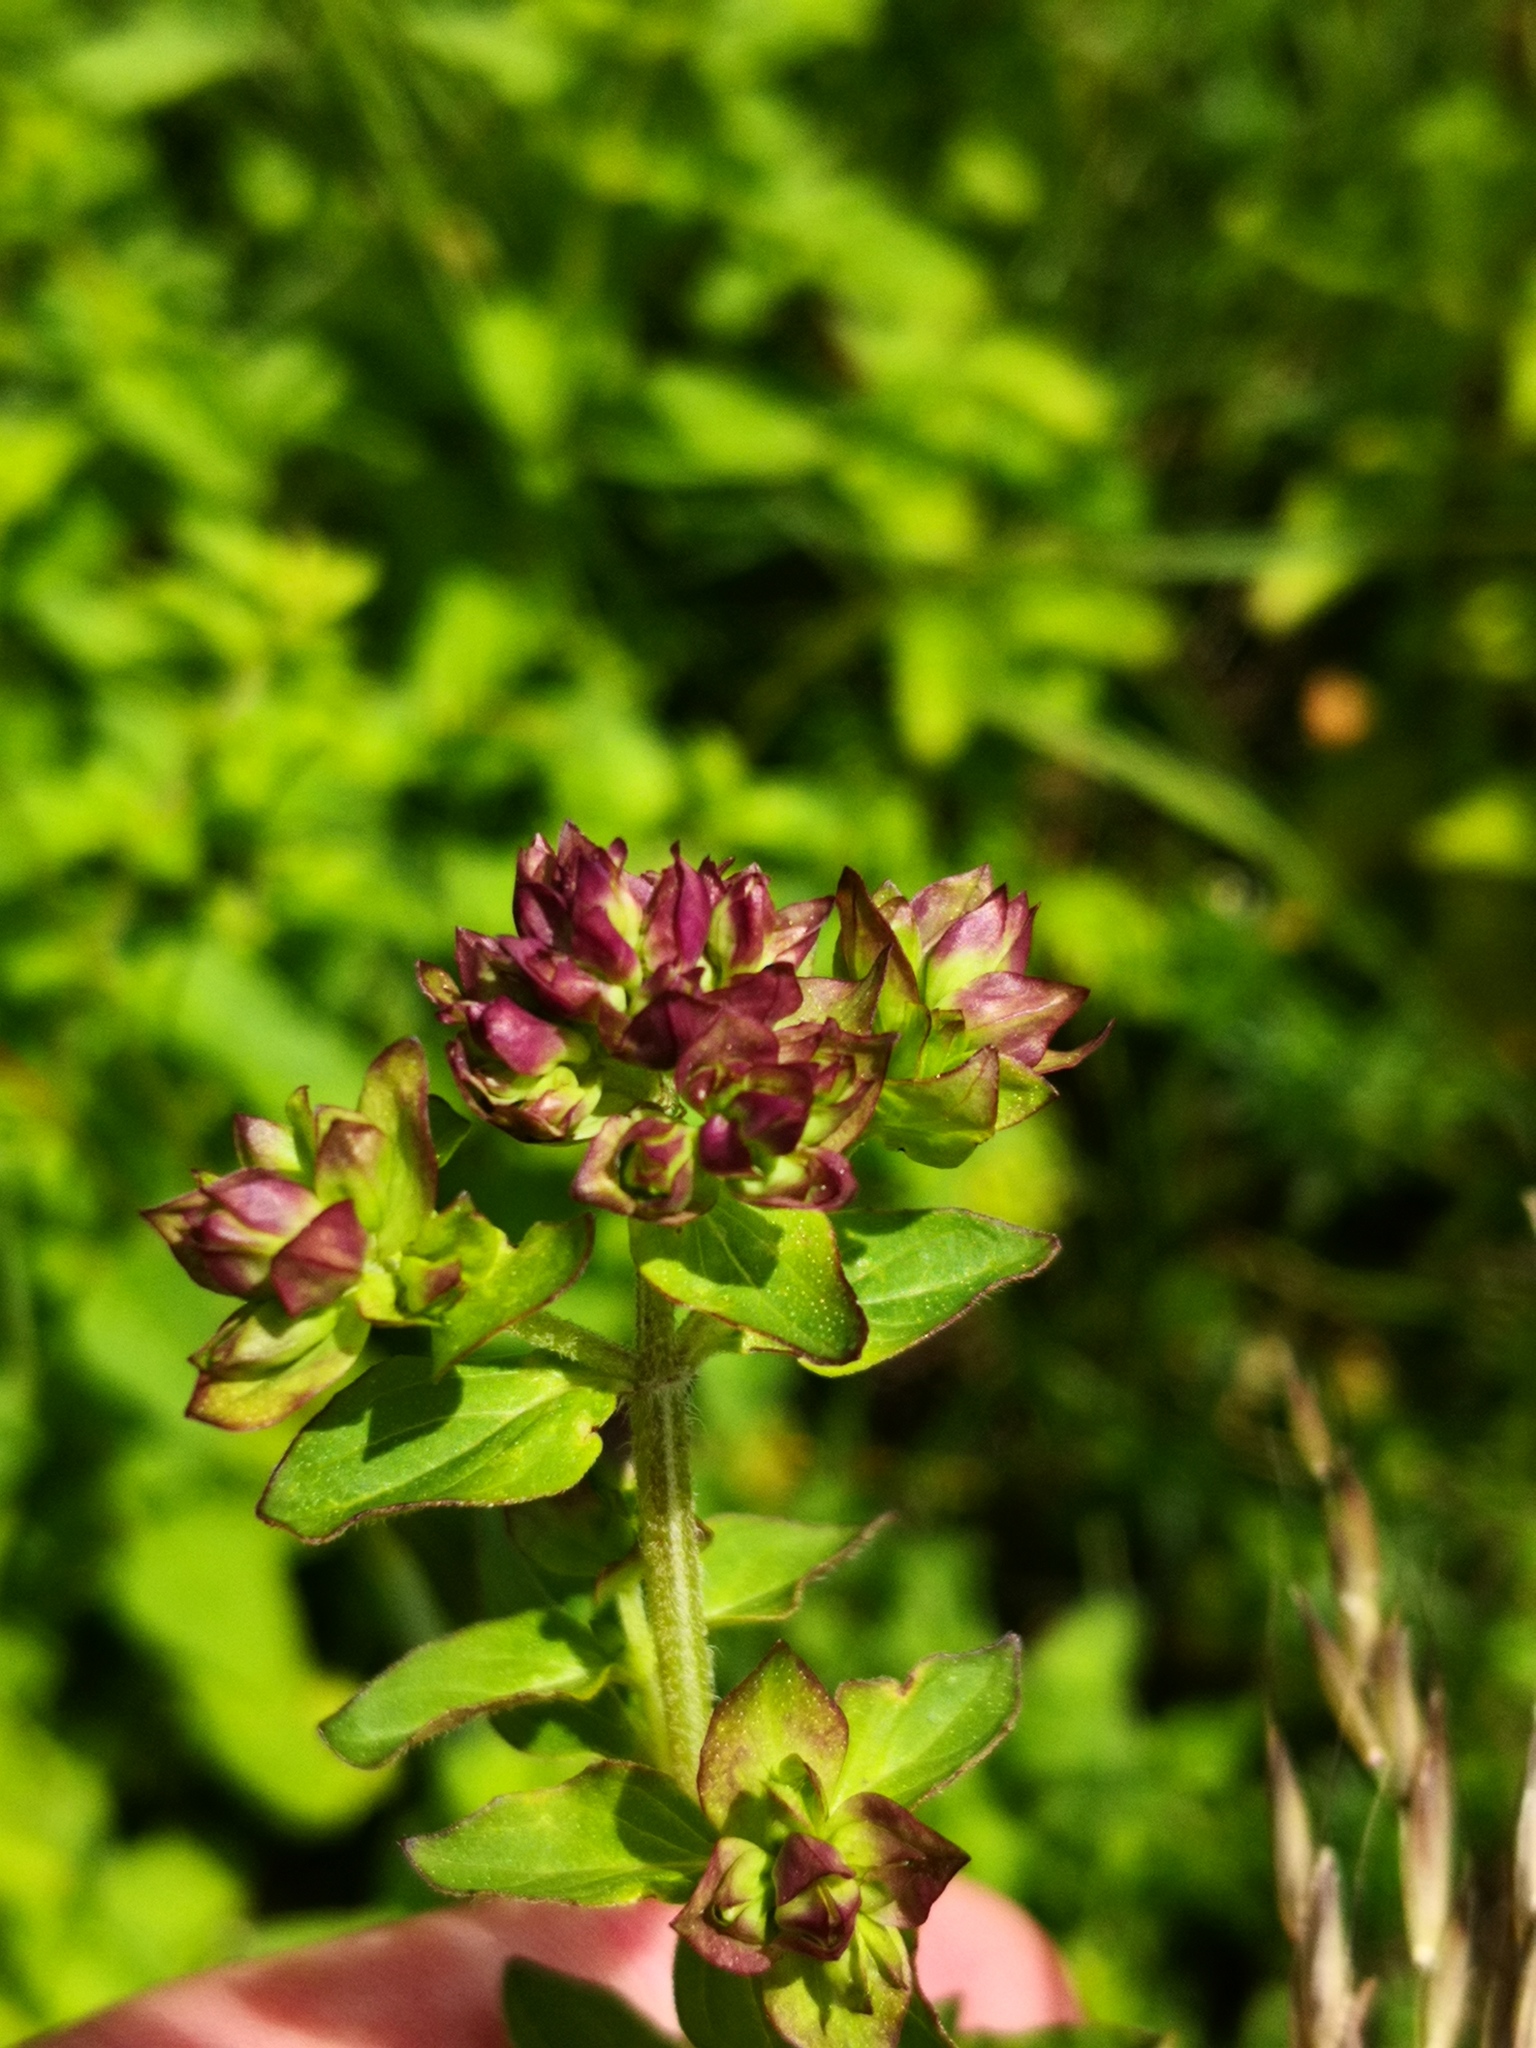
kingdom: Plantae
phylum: Tracheophyta
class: Magnoliopsida
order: Lamiales
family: Lamiaceae
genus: Origanum
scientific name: Origanum vulgare
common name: Wild marjoram
